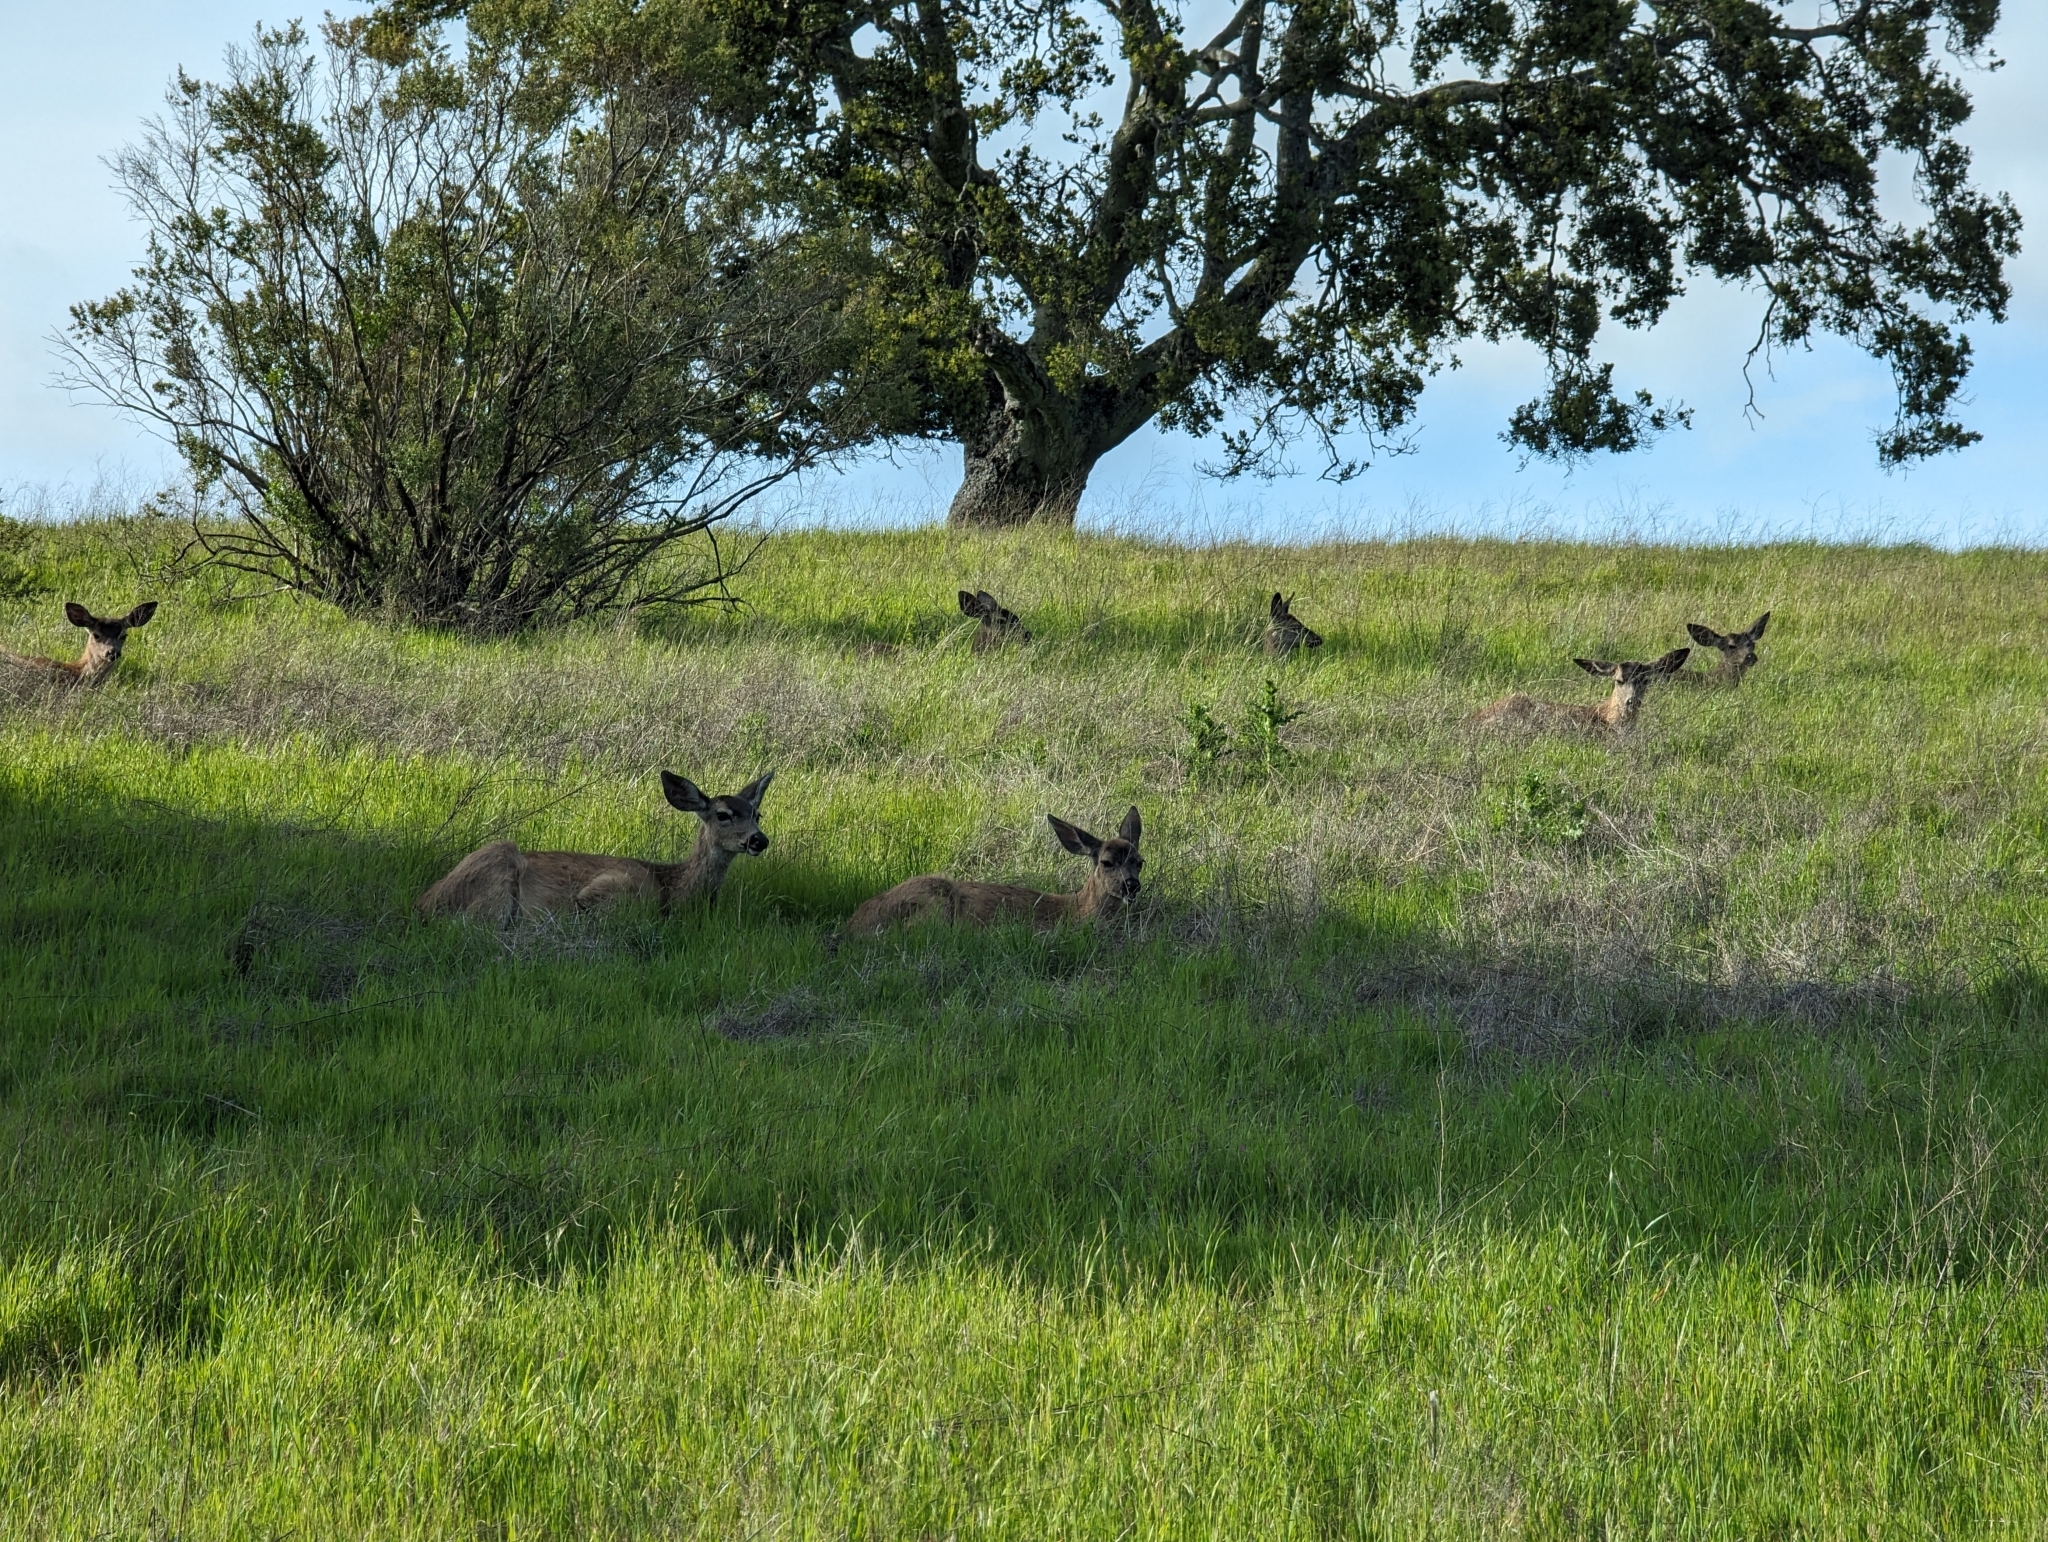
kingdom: Animalia
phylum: Chordata
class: Mammalia
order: Artiodactyla
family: Cervidae
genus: Odocoileus
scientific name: Odocoileus hemionus
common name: Mule deer
